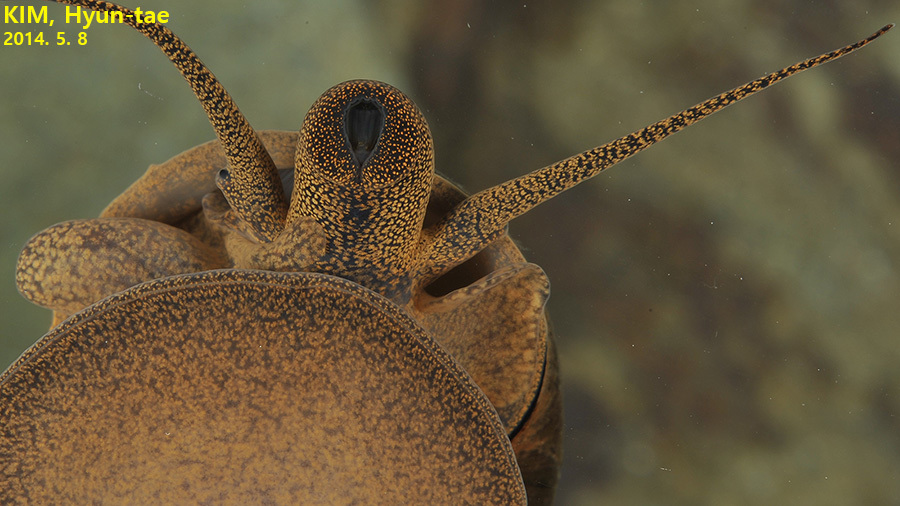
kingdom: Animalia
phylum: Mollusca
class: Gastropoda
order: Architaenioglossa
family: Viviparidae
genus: Cipangopaludina
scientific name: Cipangopaludina chinensis
